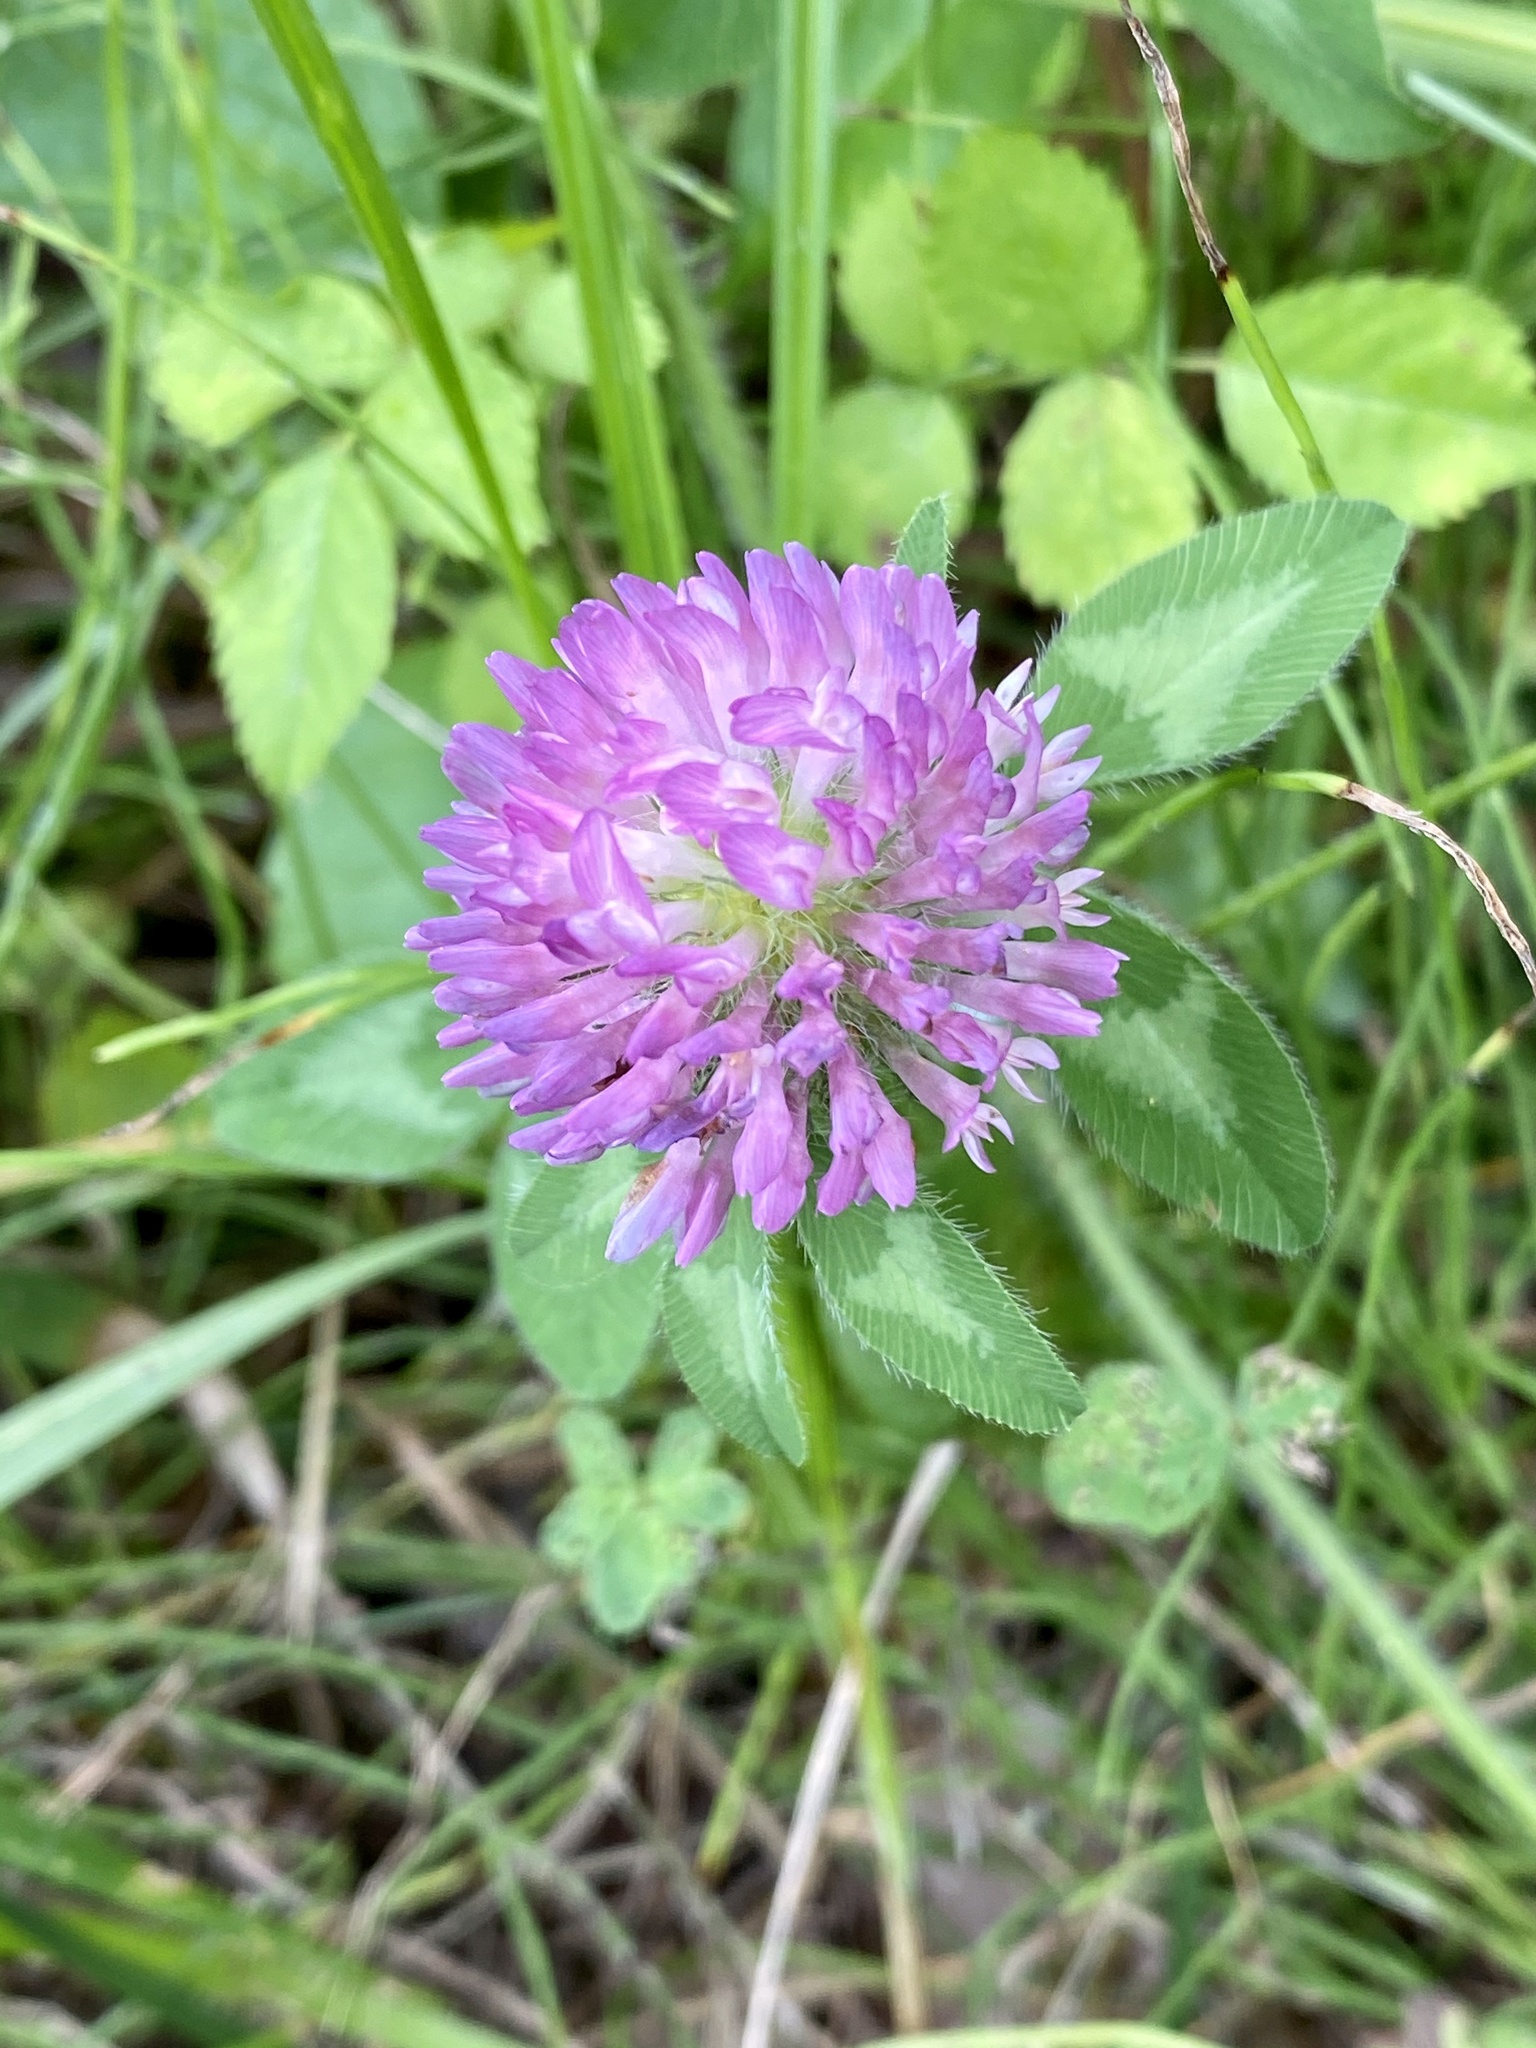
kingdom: Plantae
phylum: Tracheophyta
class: Magnoliopsida
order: Fabales
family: Fabaceae
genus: Trifolium
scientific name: Trifolium pratense
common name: Red clover
